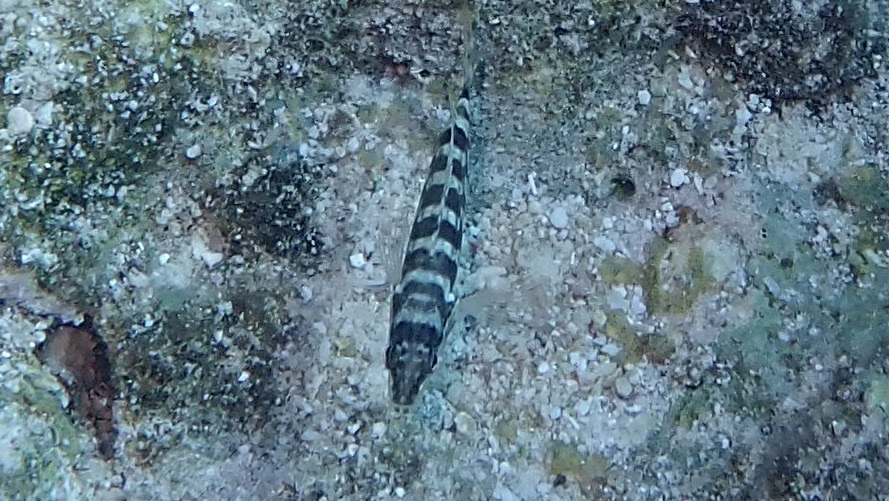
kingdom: Animalia
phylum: Chordata
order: Perciformes
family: Serranidae
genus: Serranus
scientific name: Serranus tigrinus
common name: Harlequin bass
